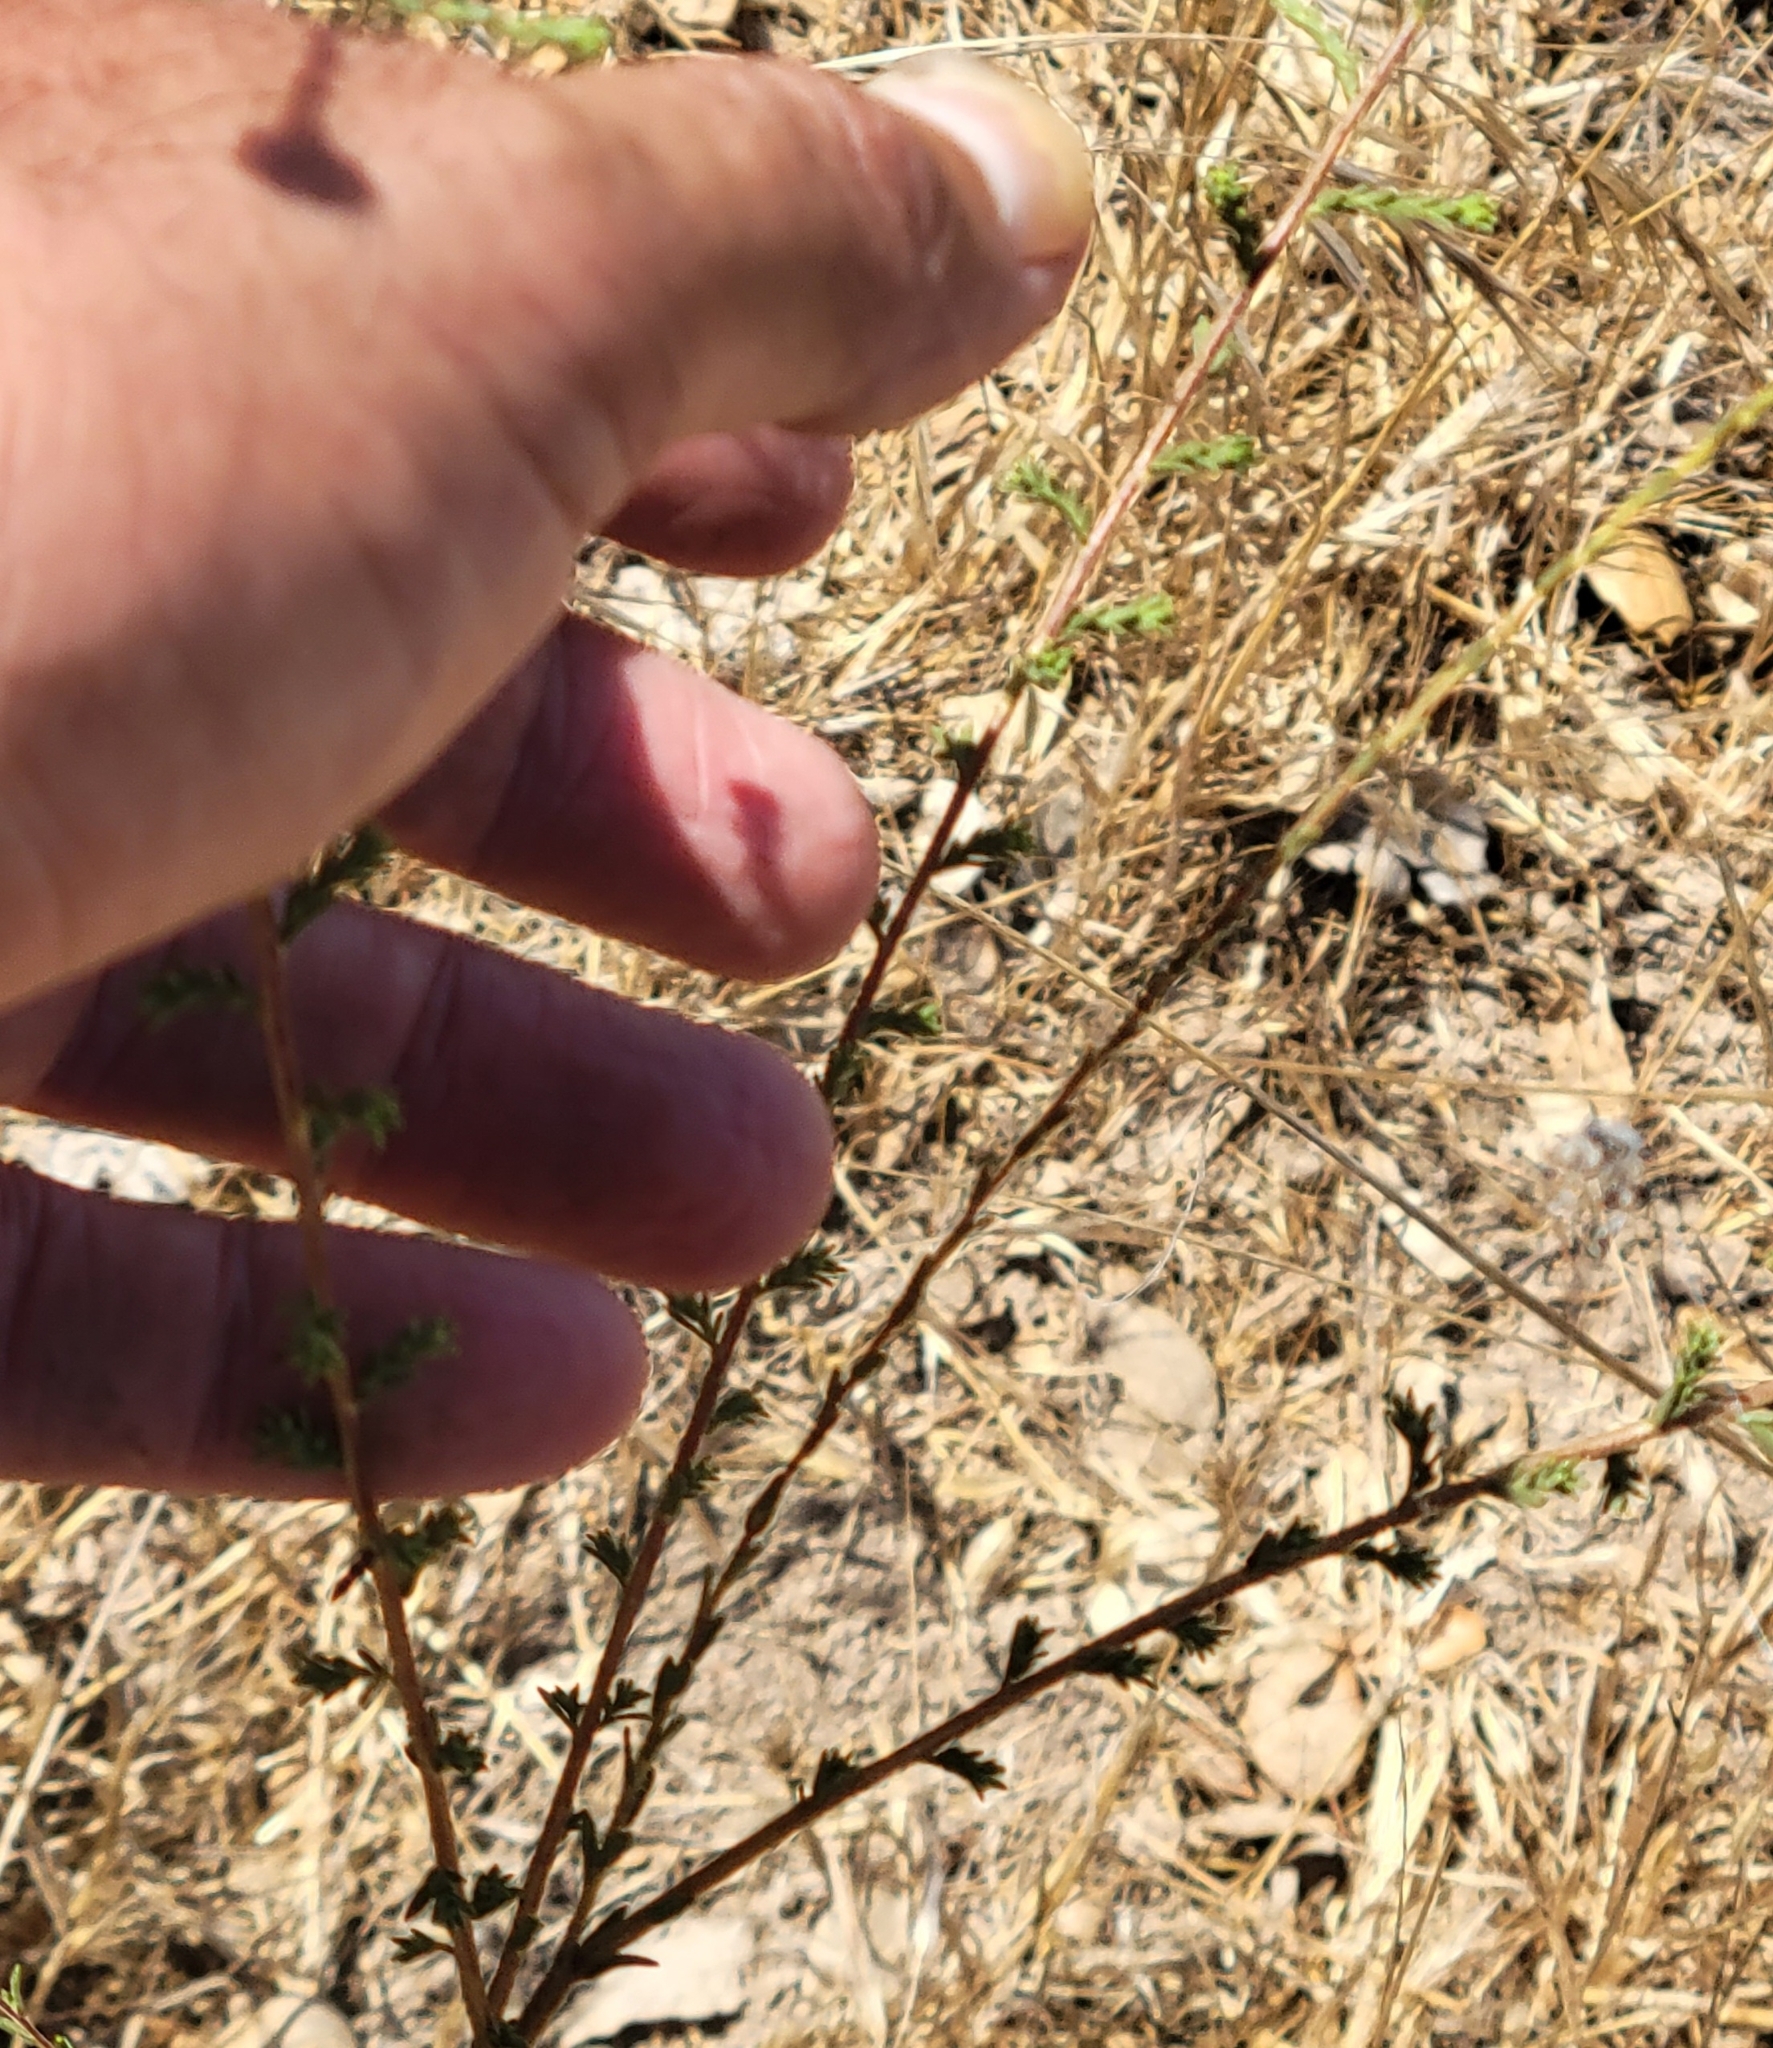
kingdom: Plantae
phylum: Tracheophyta
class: Magnoliopsida
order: Asterales
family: Asteraceae
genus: Holocarpha
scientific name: Holocarpha heermannii
